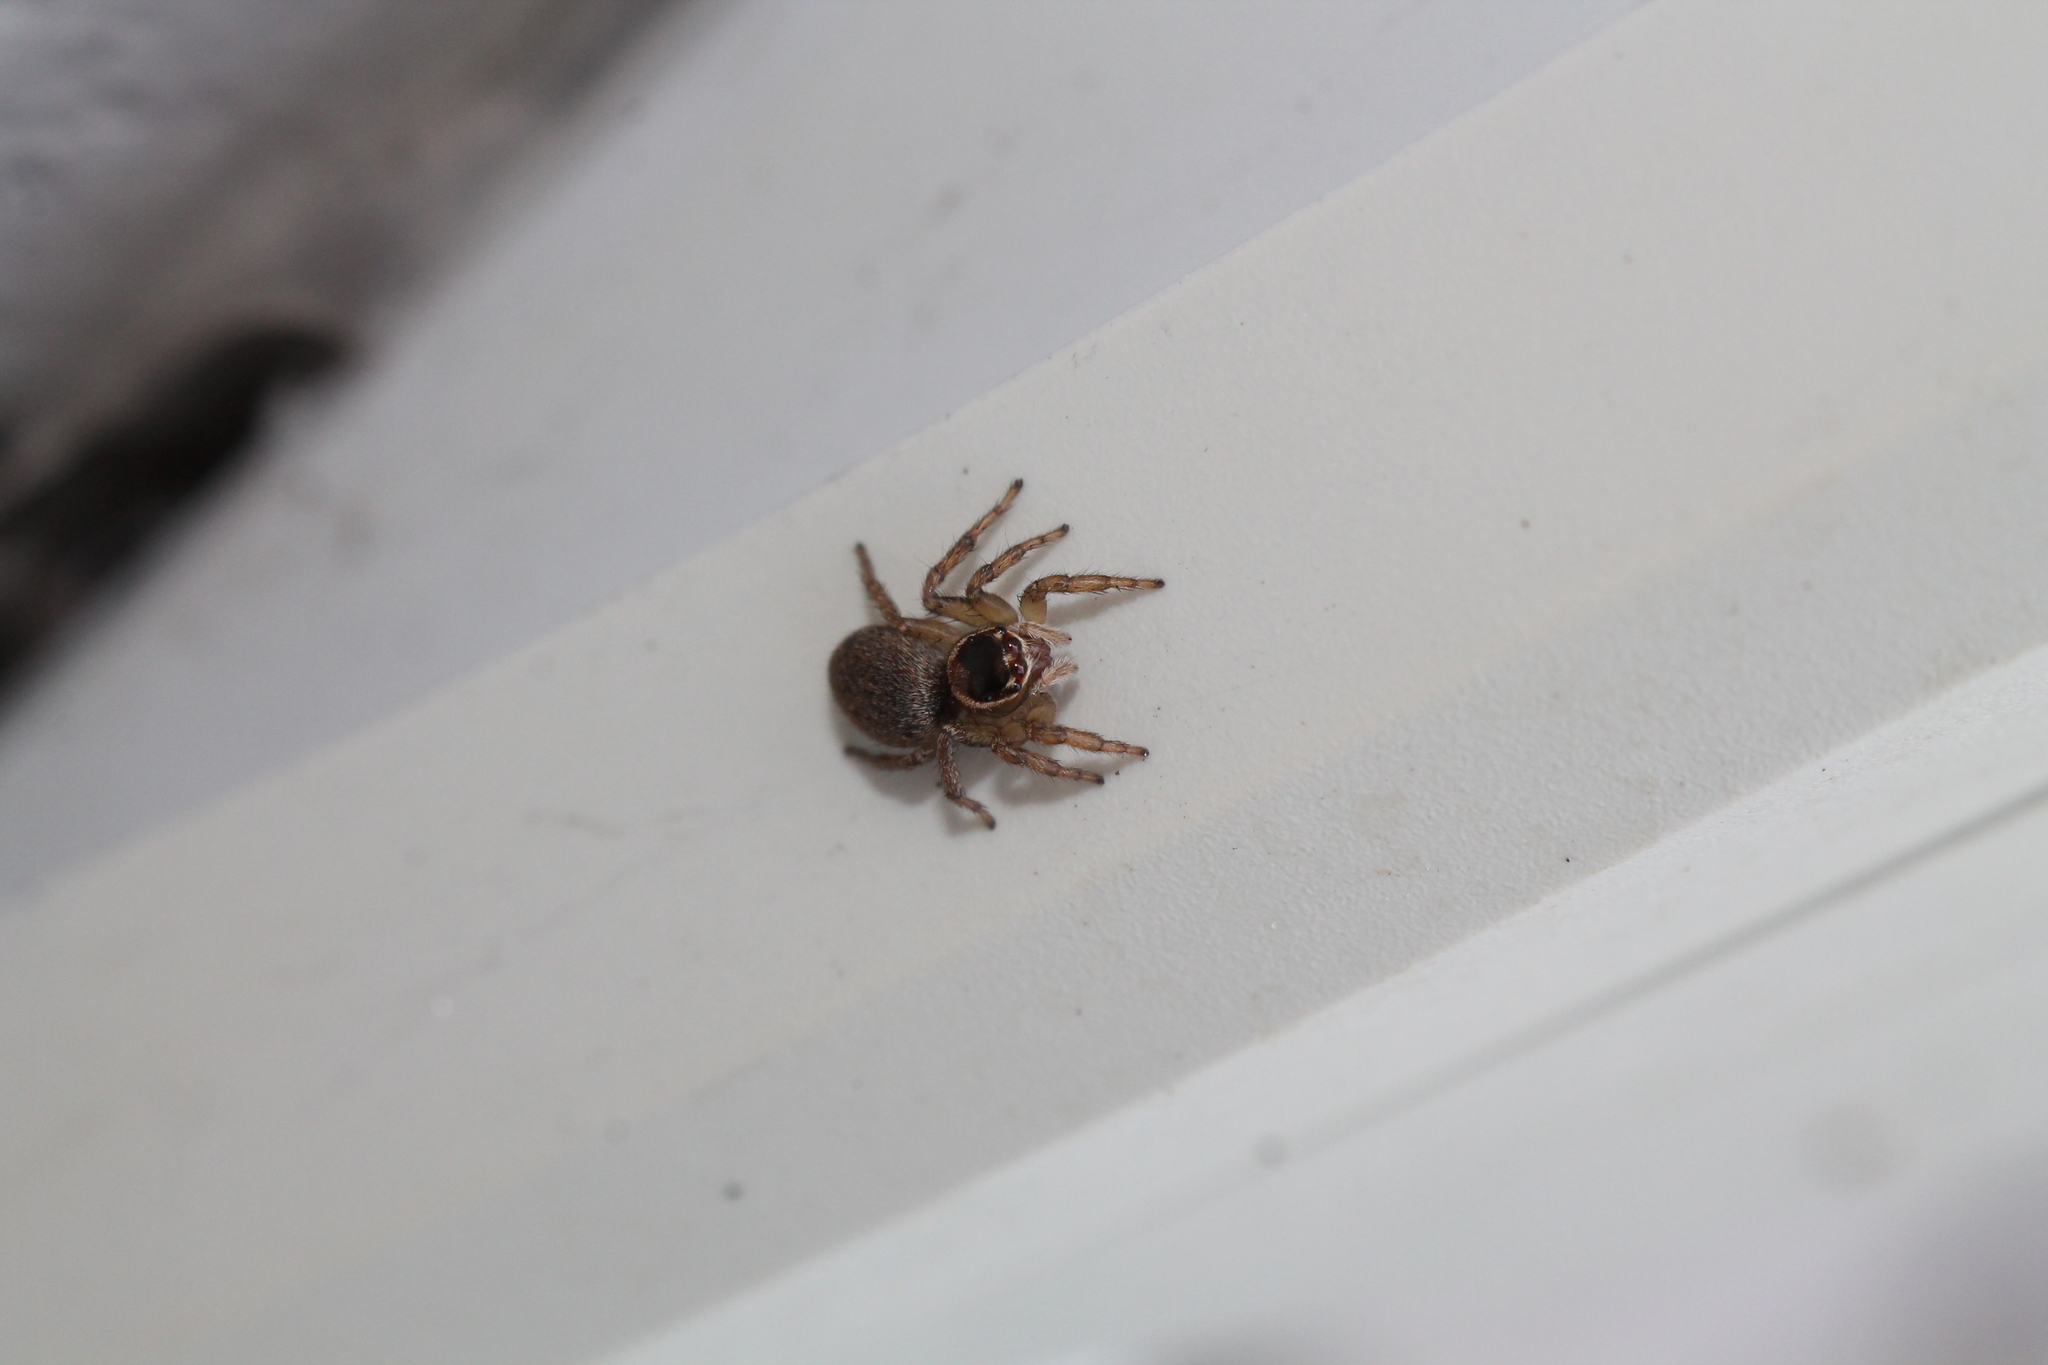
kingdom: Animalia
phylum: Arthropoda
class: Arachnida
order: Araneae
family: Salticidae
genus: Maratus
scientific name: Maratus griseus
